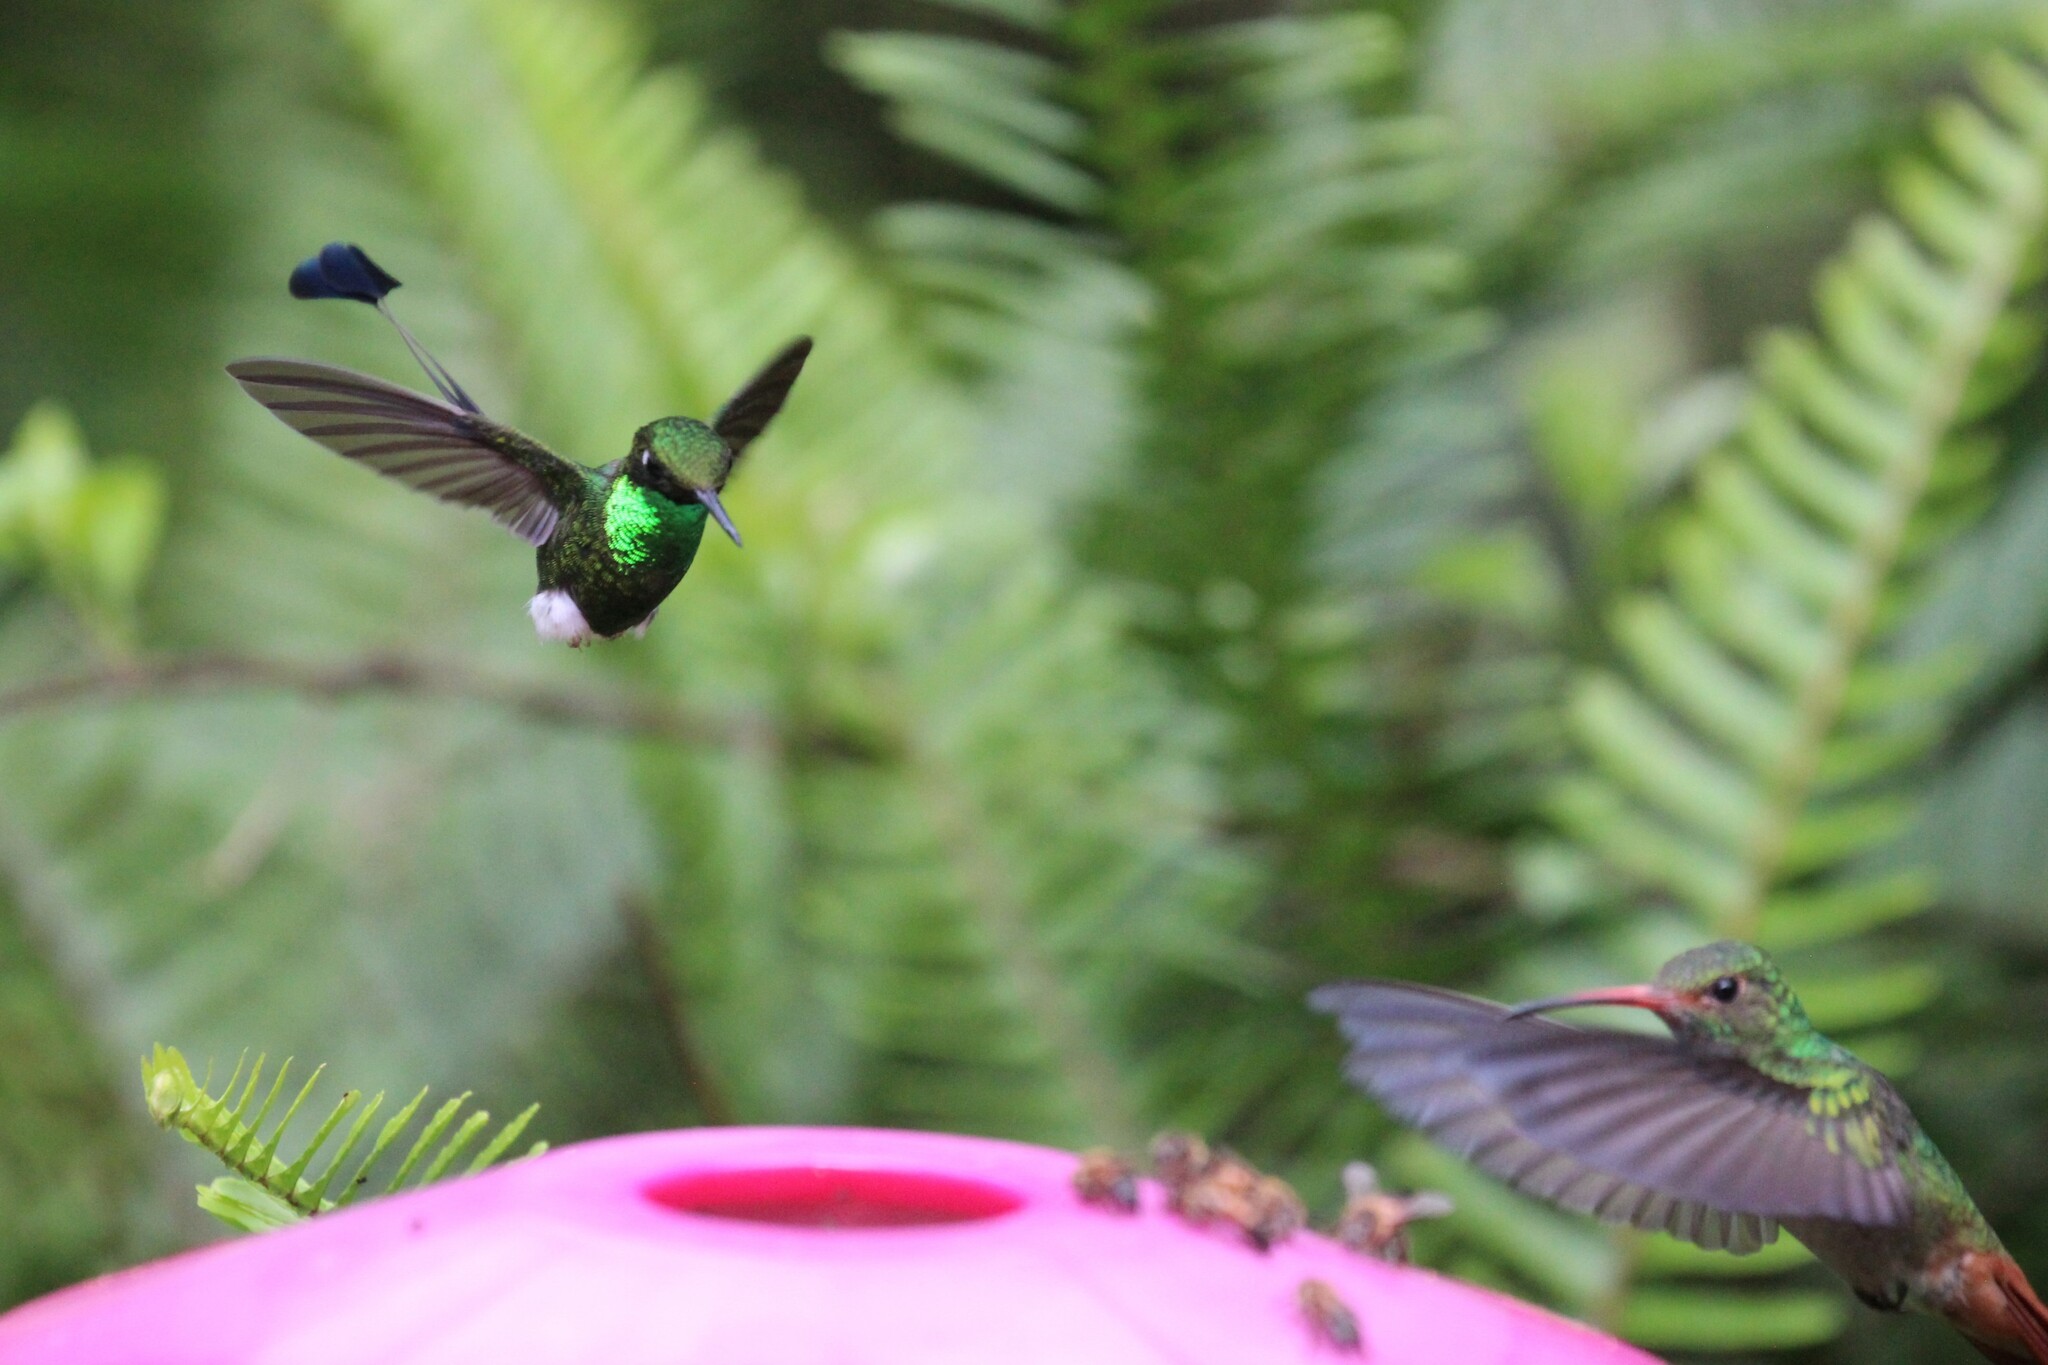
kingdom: Animalia
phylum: Chordata
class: Aves
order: Apodiformes
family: Trochilidae
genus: Ocreatus
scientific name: Ocreatus underwoodii
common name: Booted racket-tail
